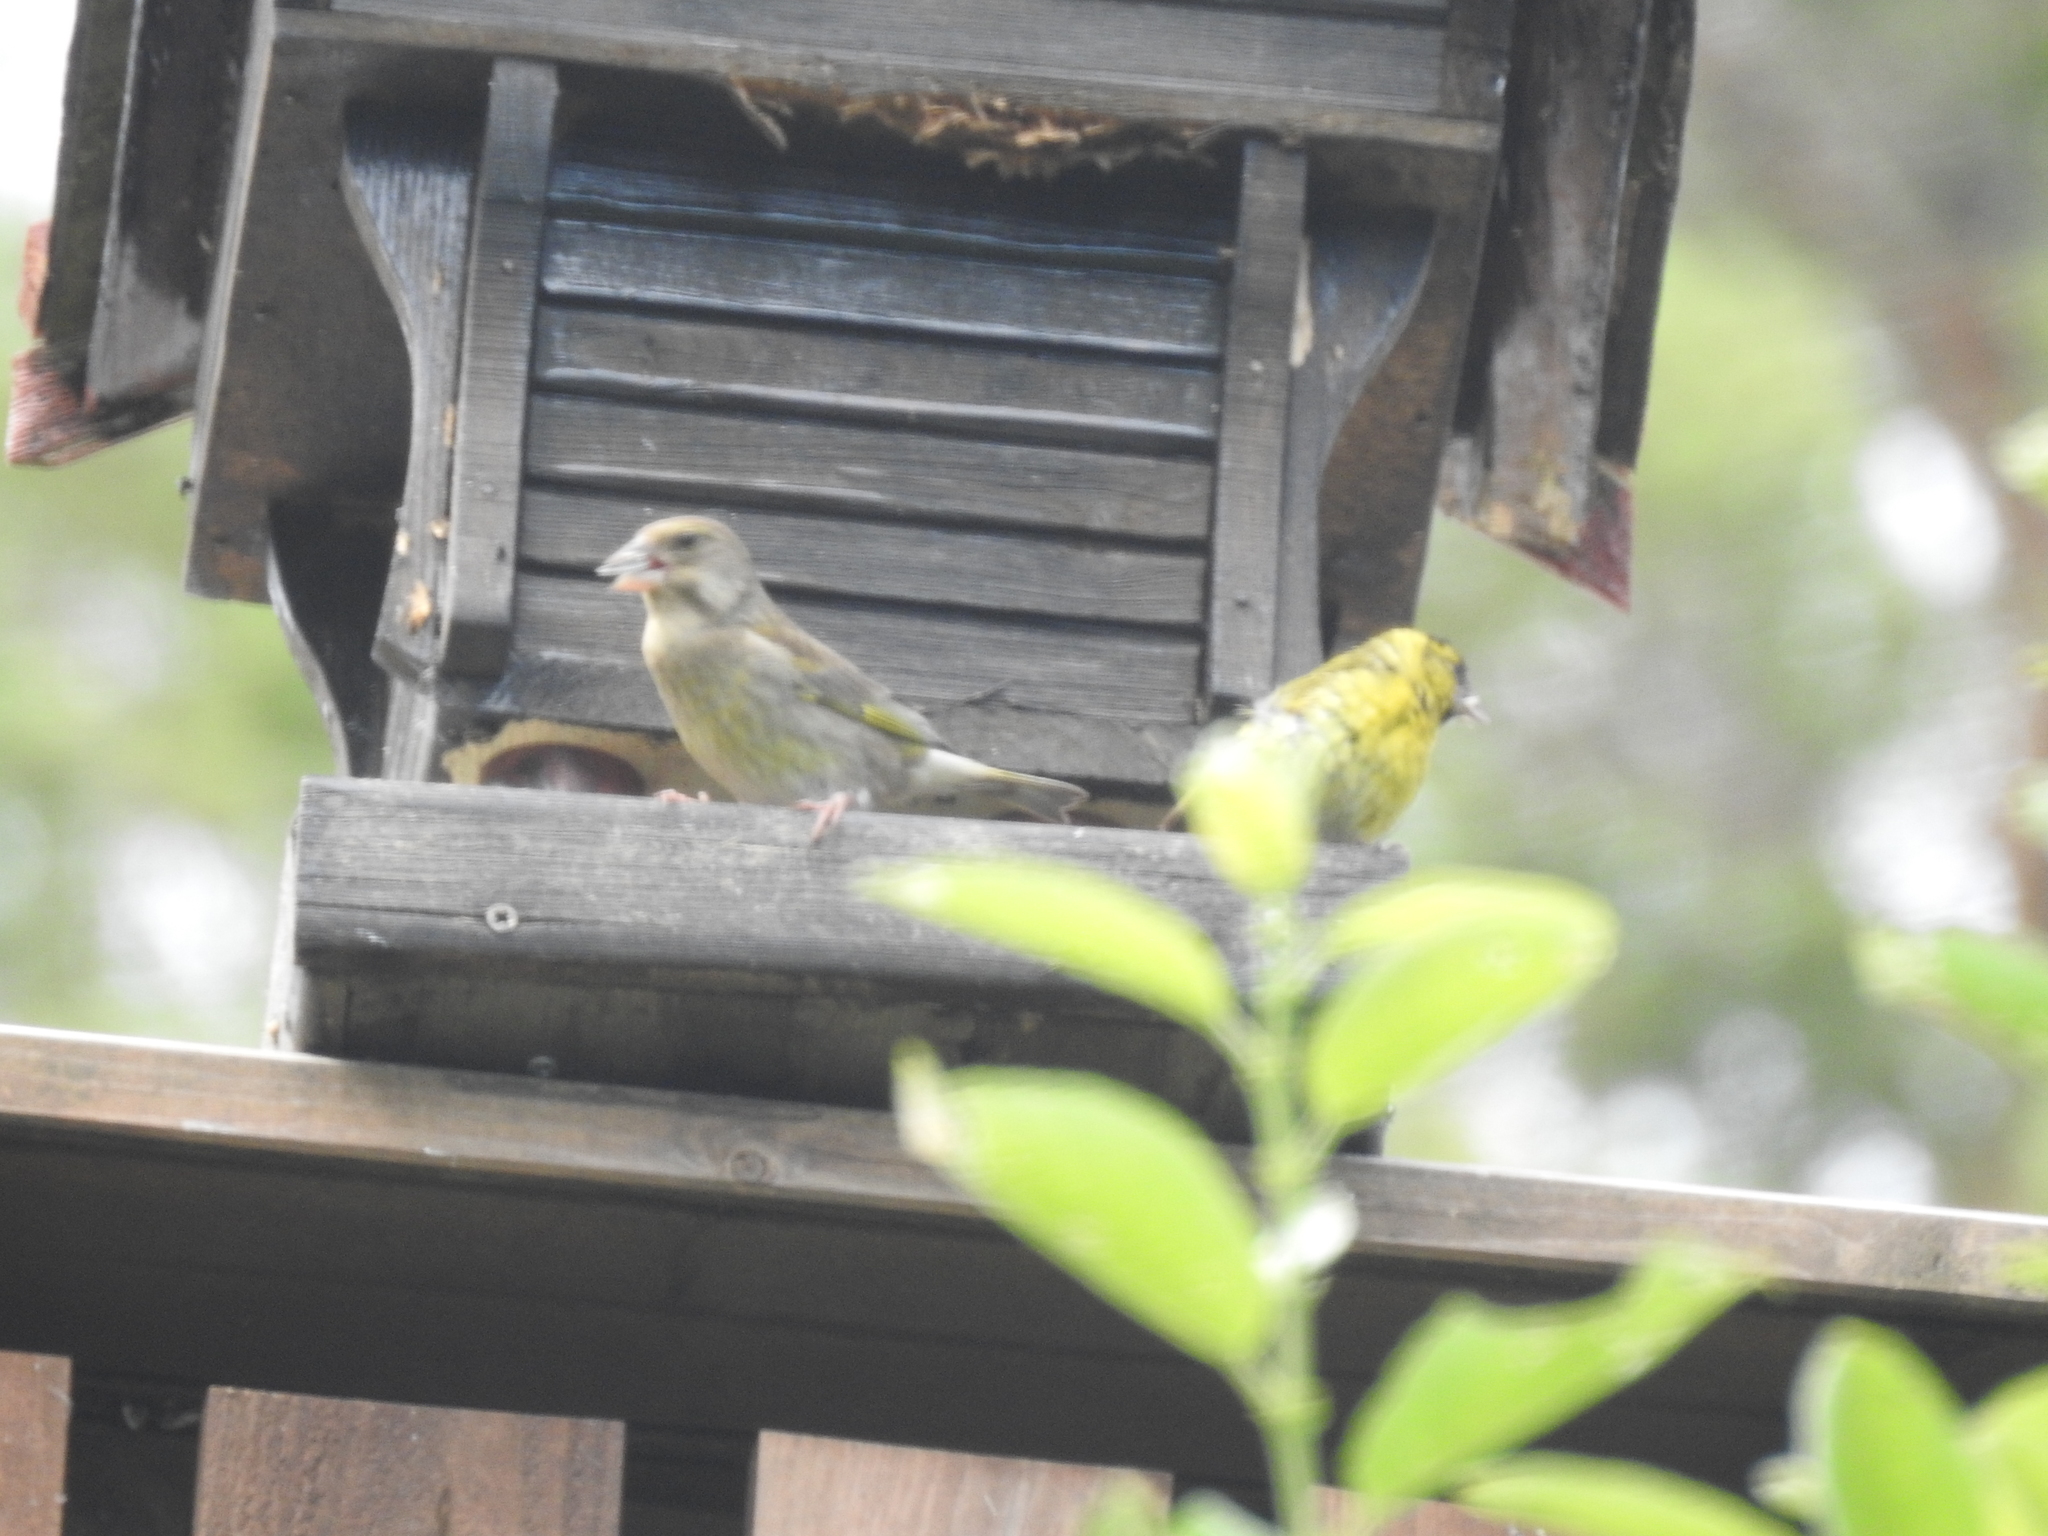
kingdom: Plantae
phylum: Tracheophyta
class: Liliopsida
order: Poales
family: Poaceae
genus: Chloris
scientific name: Chloris chloris
